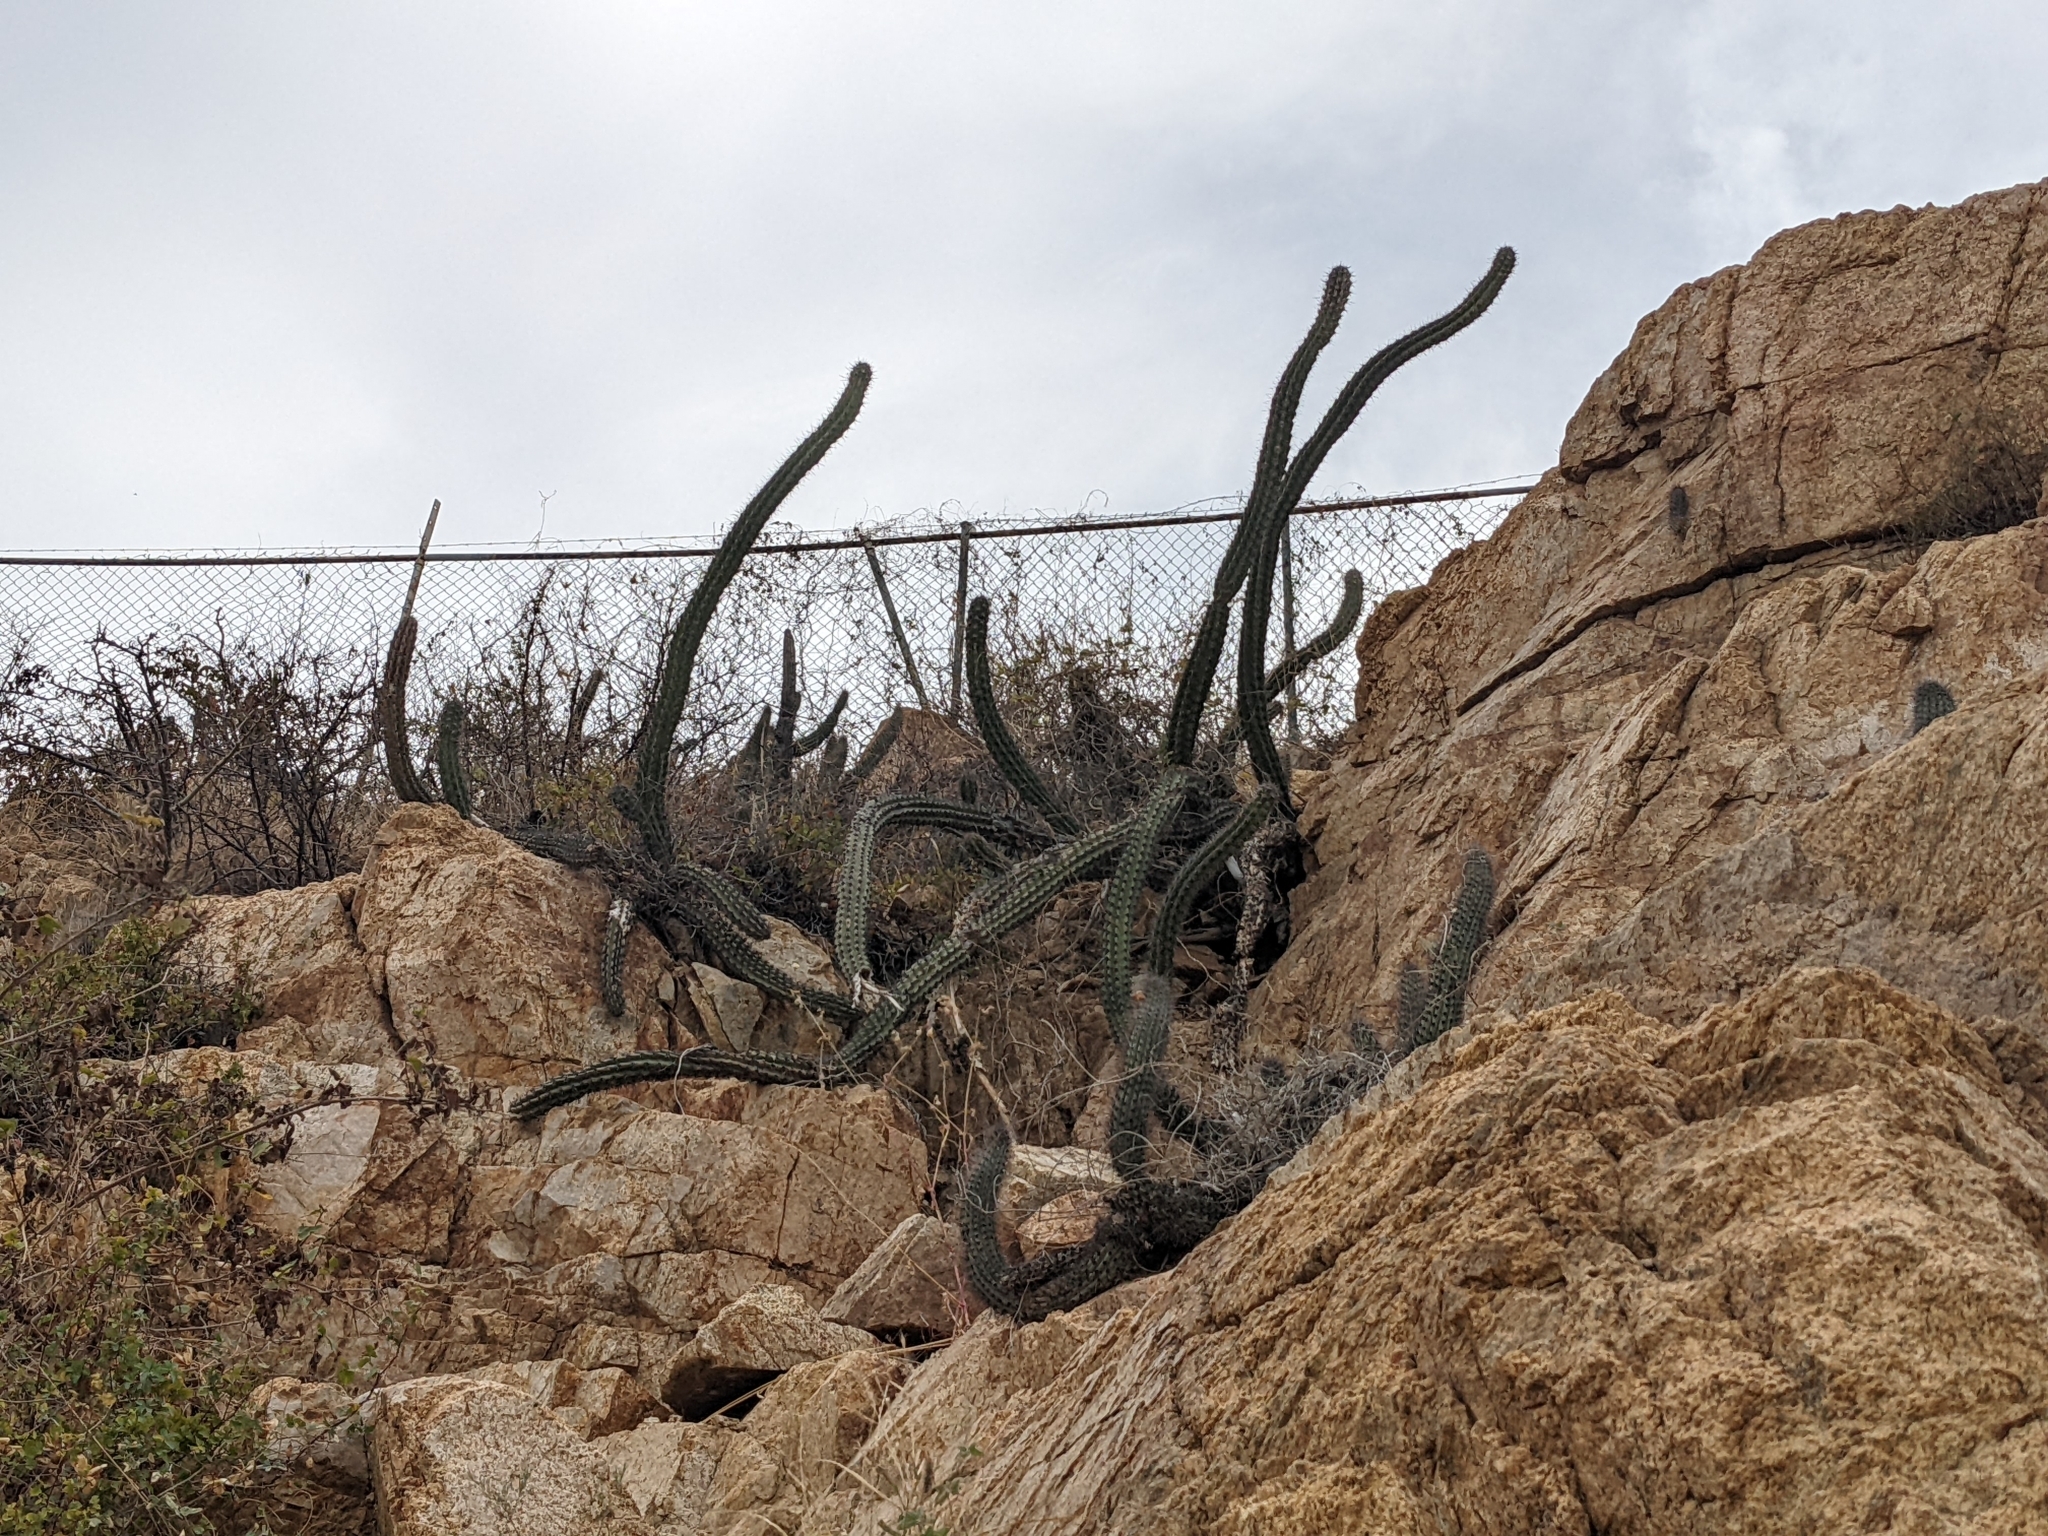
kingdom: Plantae
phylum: Tracheophyta
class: Magnoliopsida
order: Caryophyllales
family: Cactaceae
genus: Stenocereus
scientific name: Stenocereus thurberi
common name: Organ pipe cactus
